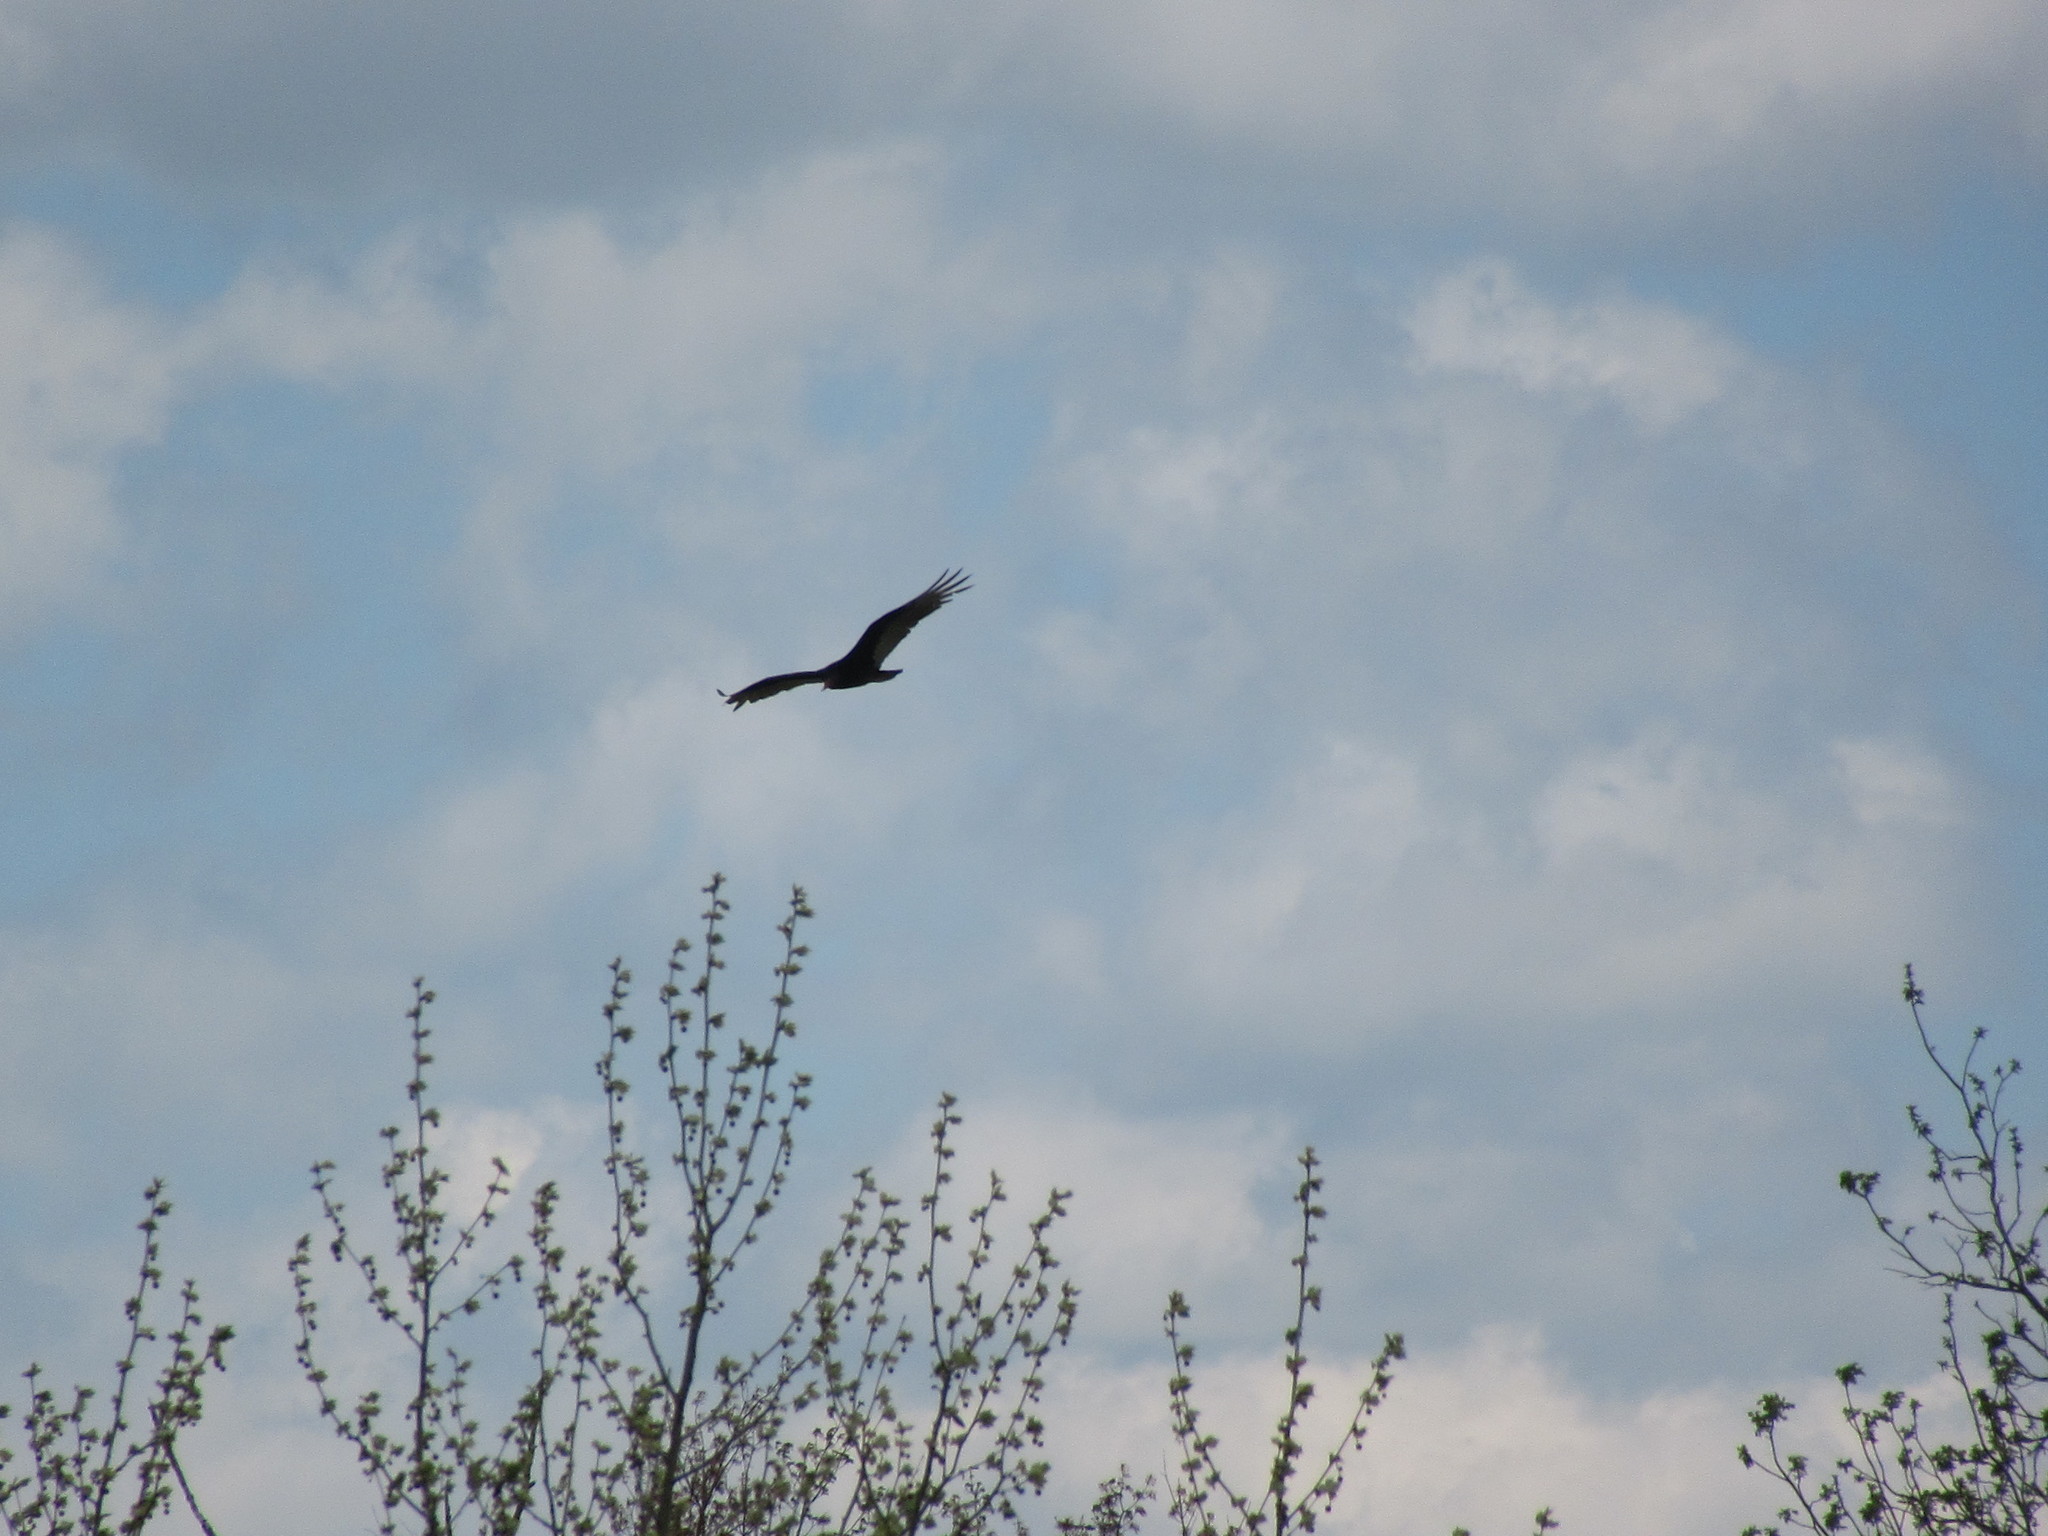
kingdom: Animalia
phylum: Chordata
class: Aves
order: Accipitriformes
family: Cathartidae
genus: Cathartes
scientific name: Cathartes aura
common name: Turkey vulture
